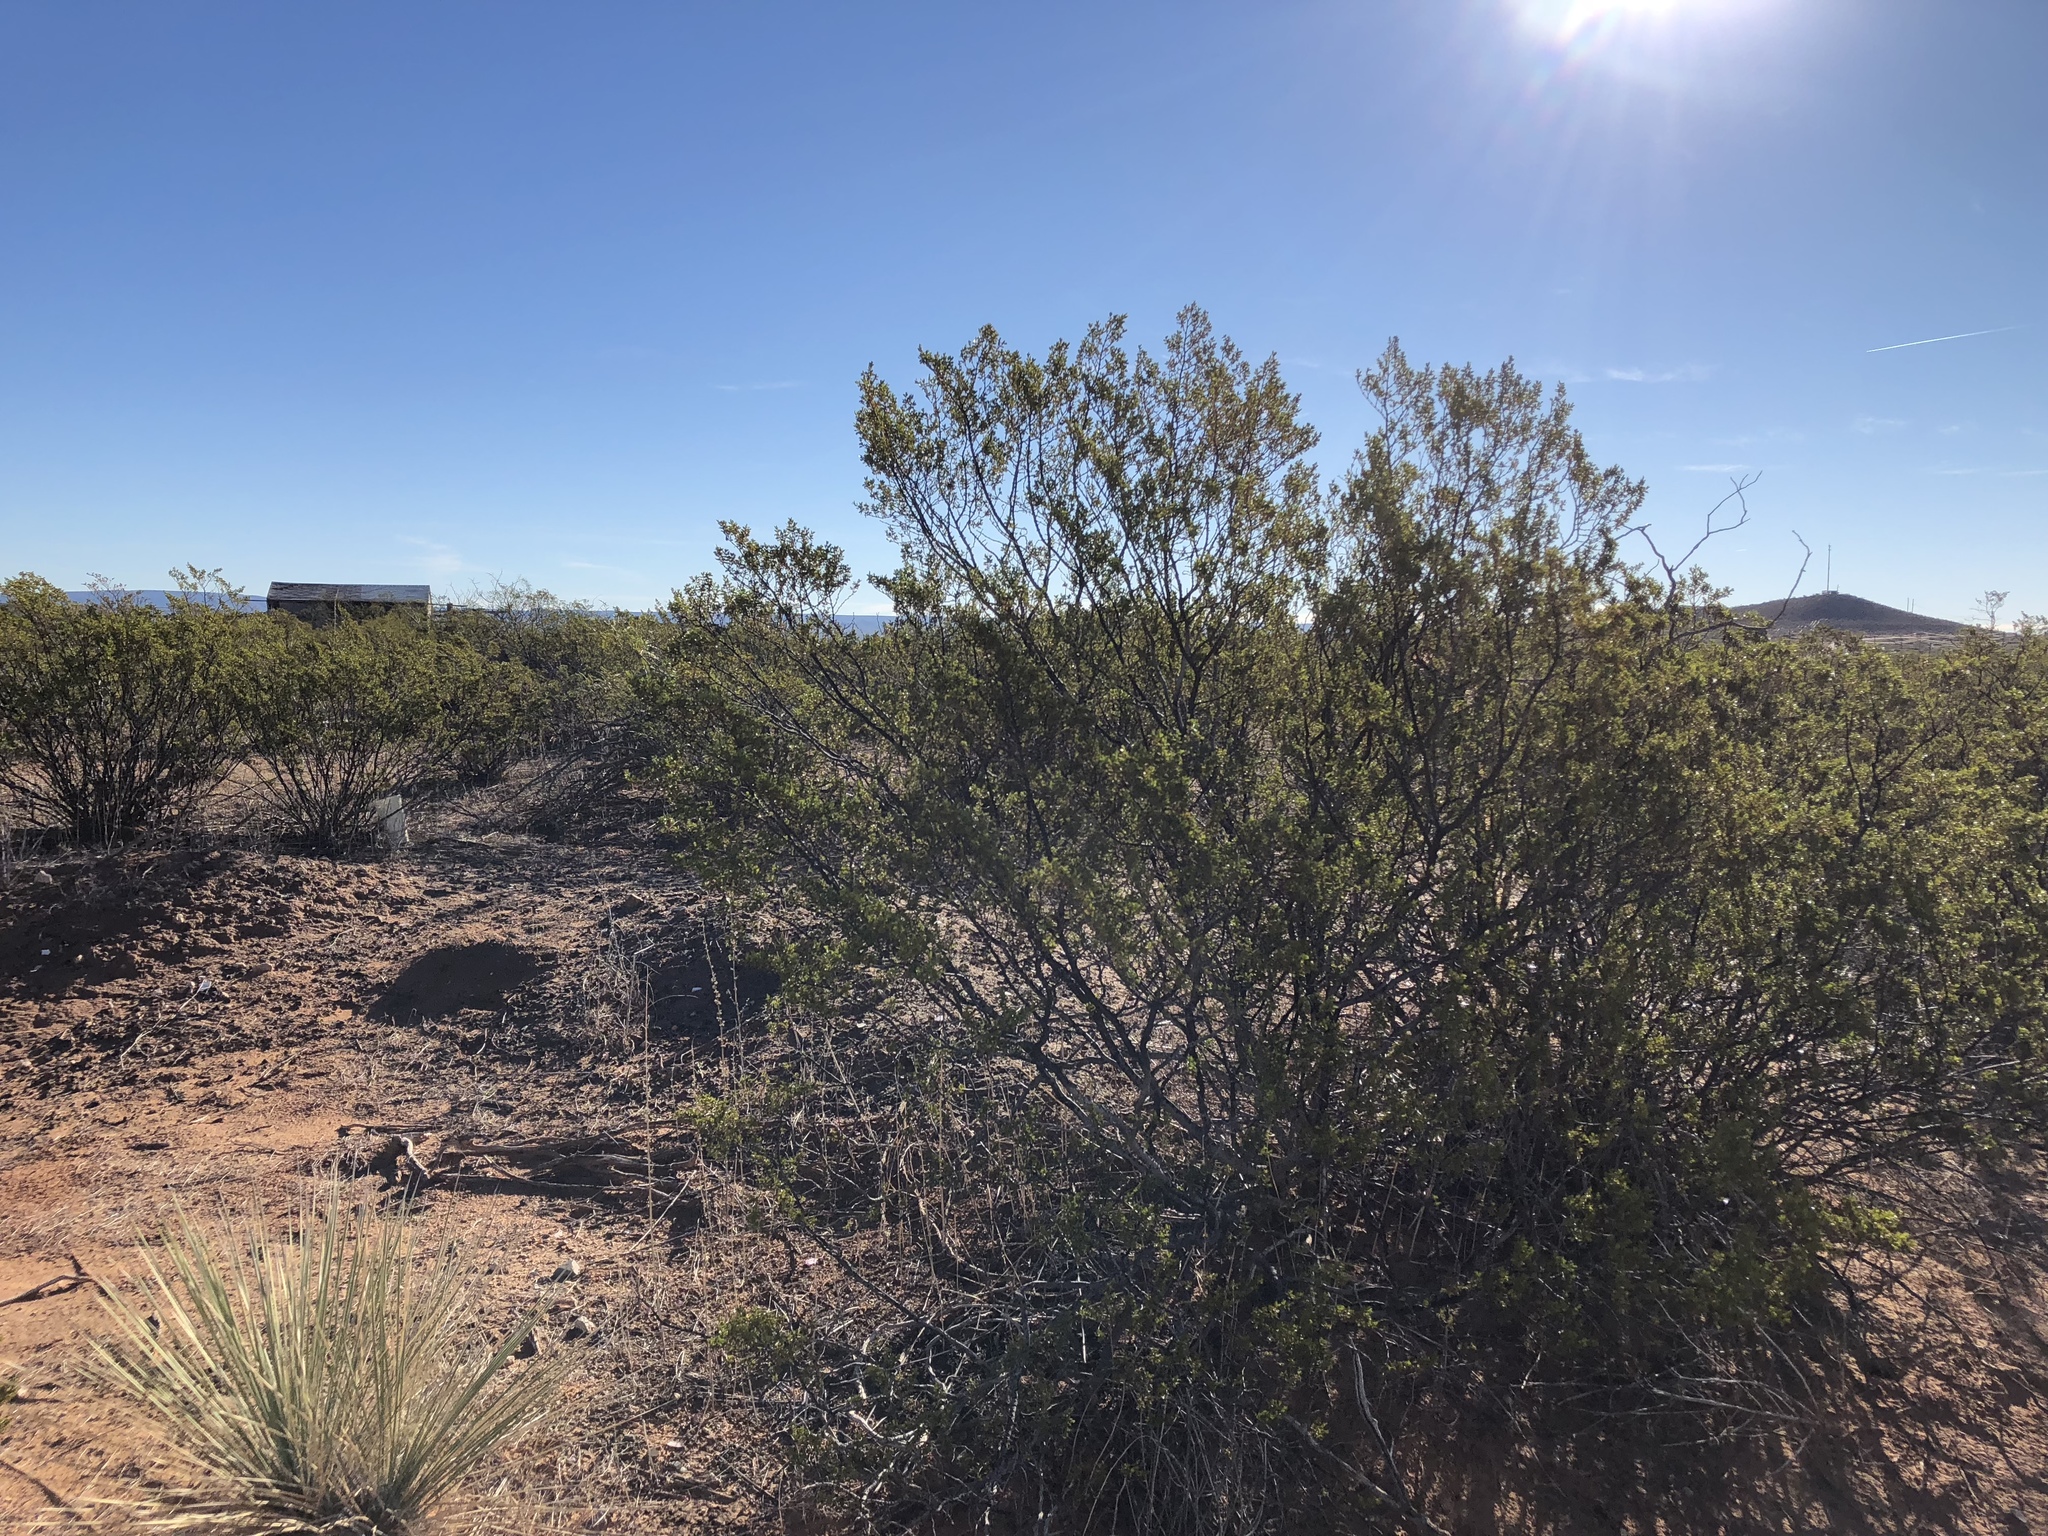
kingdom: Plantae
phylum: Tracheophyta
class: Magnoliopsida
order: Zygophyllales
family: Zygophyllaceae
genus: Larrea
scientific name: Larrea tridentata
